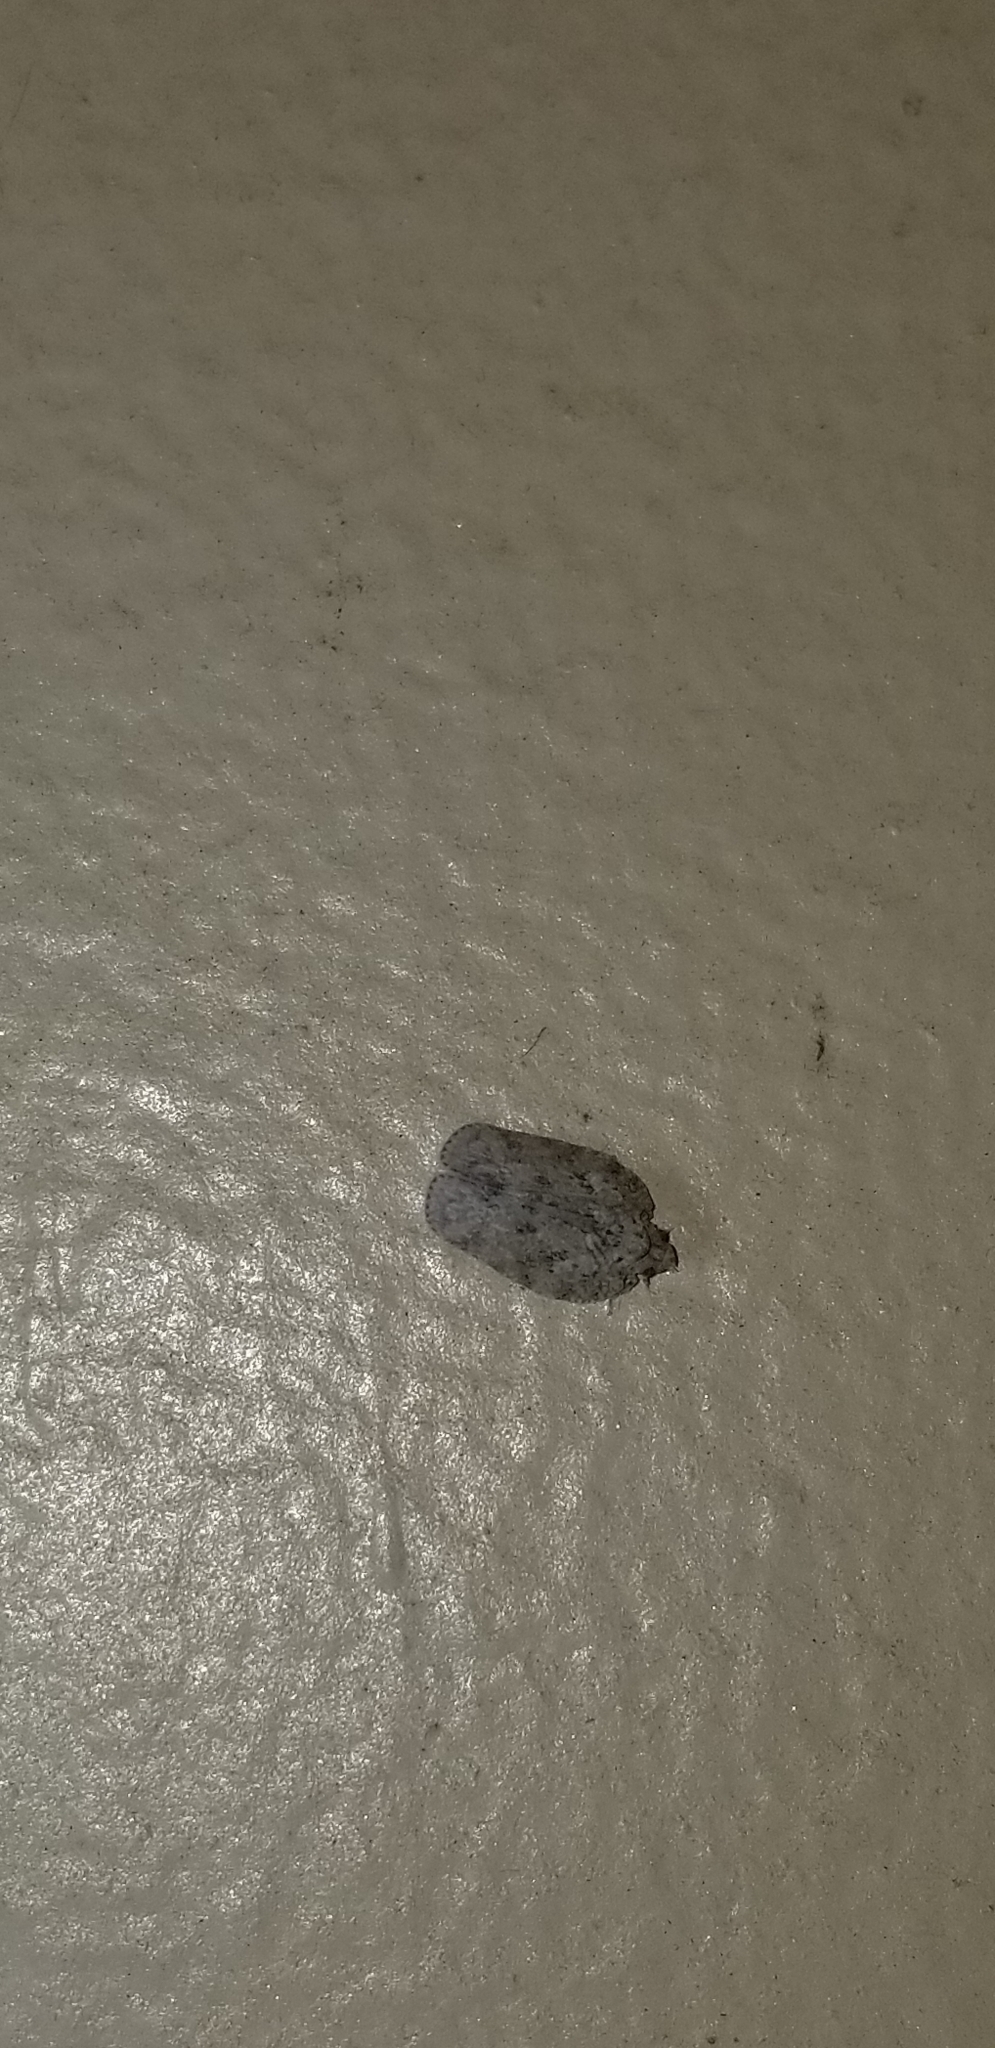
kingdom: Animalia
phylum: Arthropoda
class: Insecta
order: Hemiptera
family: Flatidae
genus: Flatoidinus
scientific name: Flatoidinus punctatus
